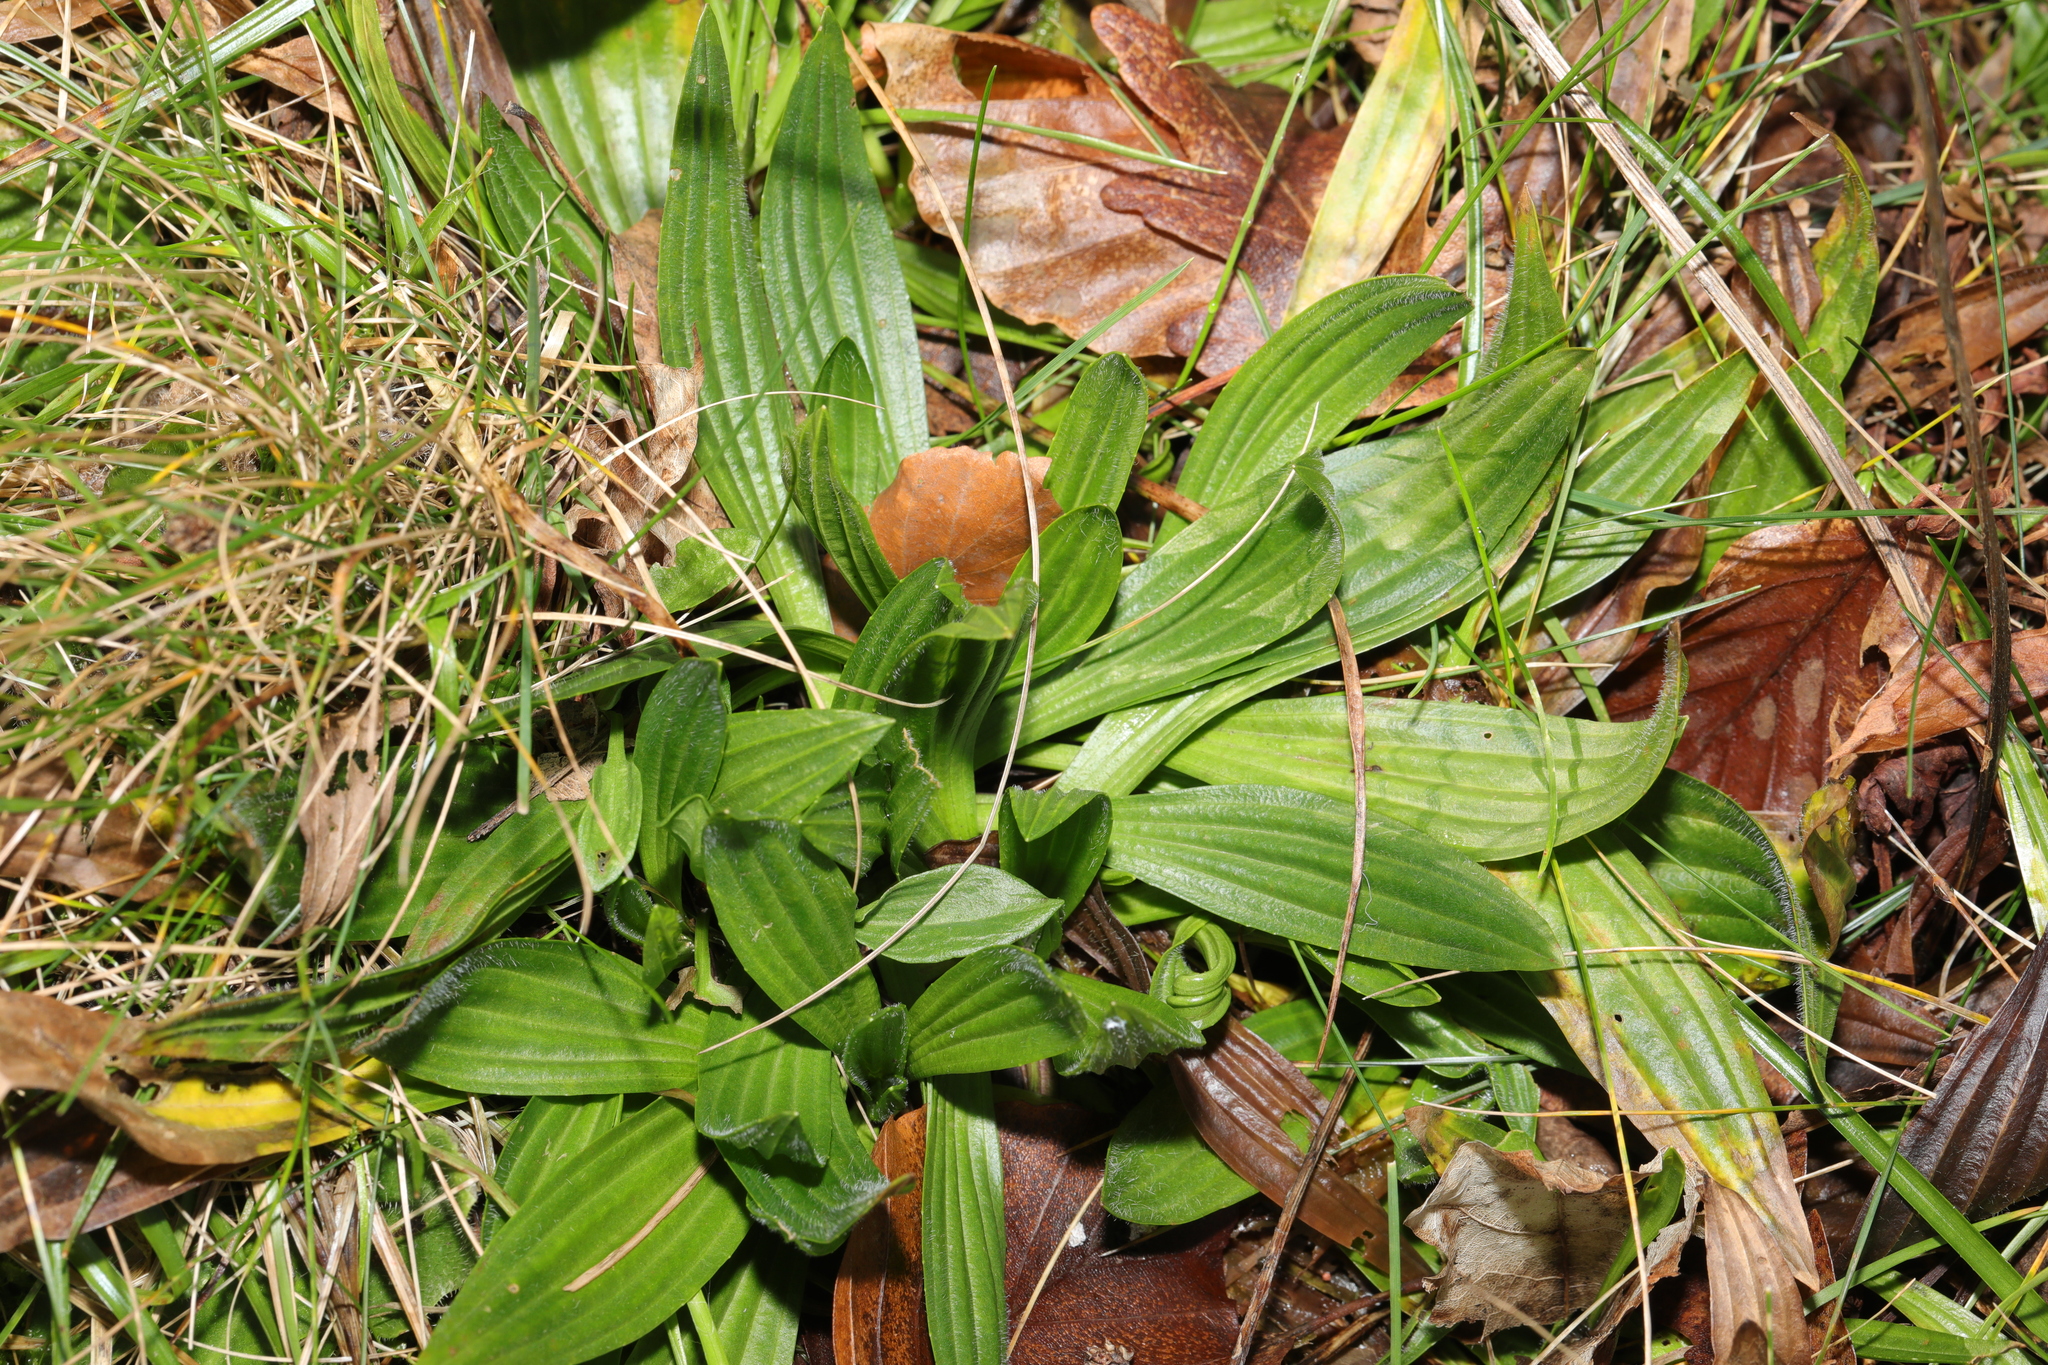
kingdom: Plantae
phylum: Tracheophyta
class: Magnoliopsida
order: Lamiales
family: Plantaginaceae
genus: Plantago
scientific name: Plantago lanceolata
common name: Ribwort plantain
